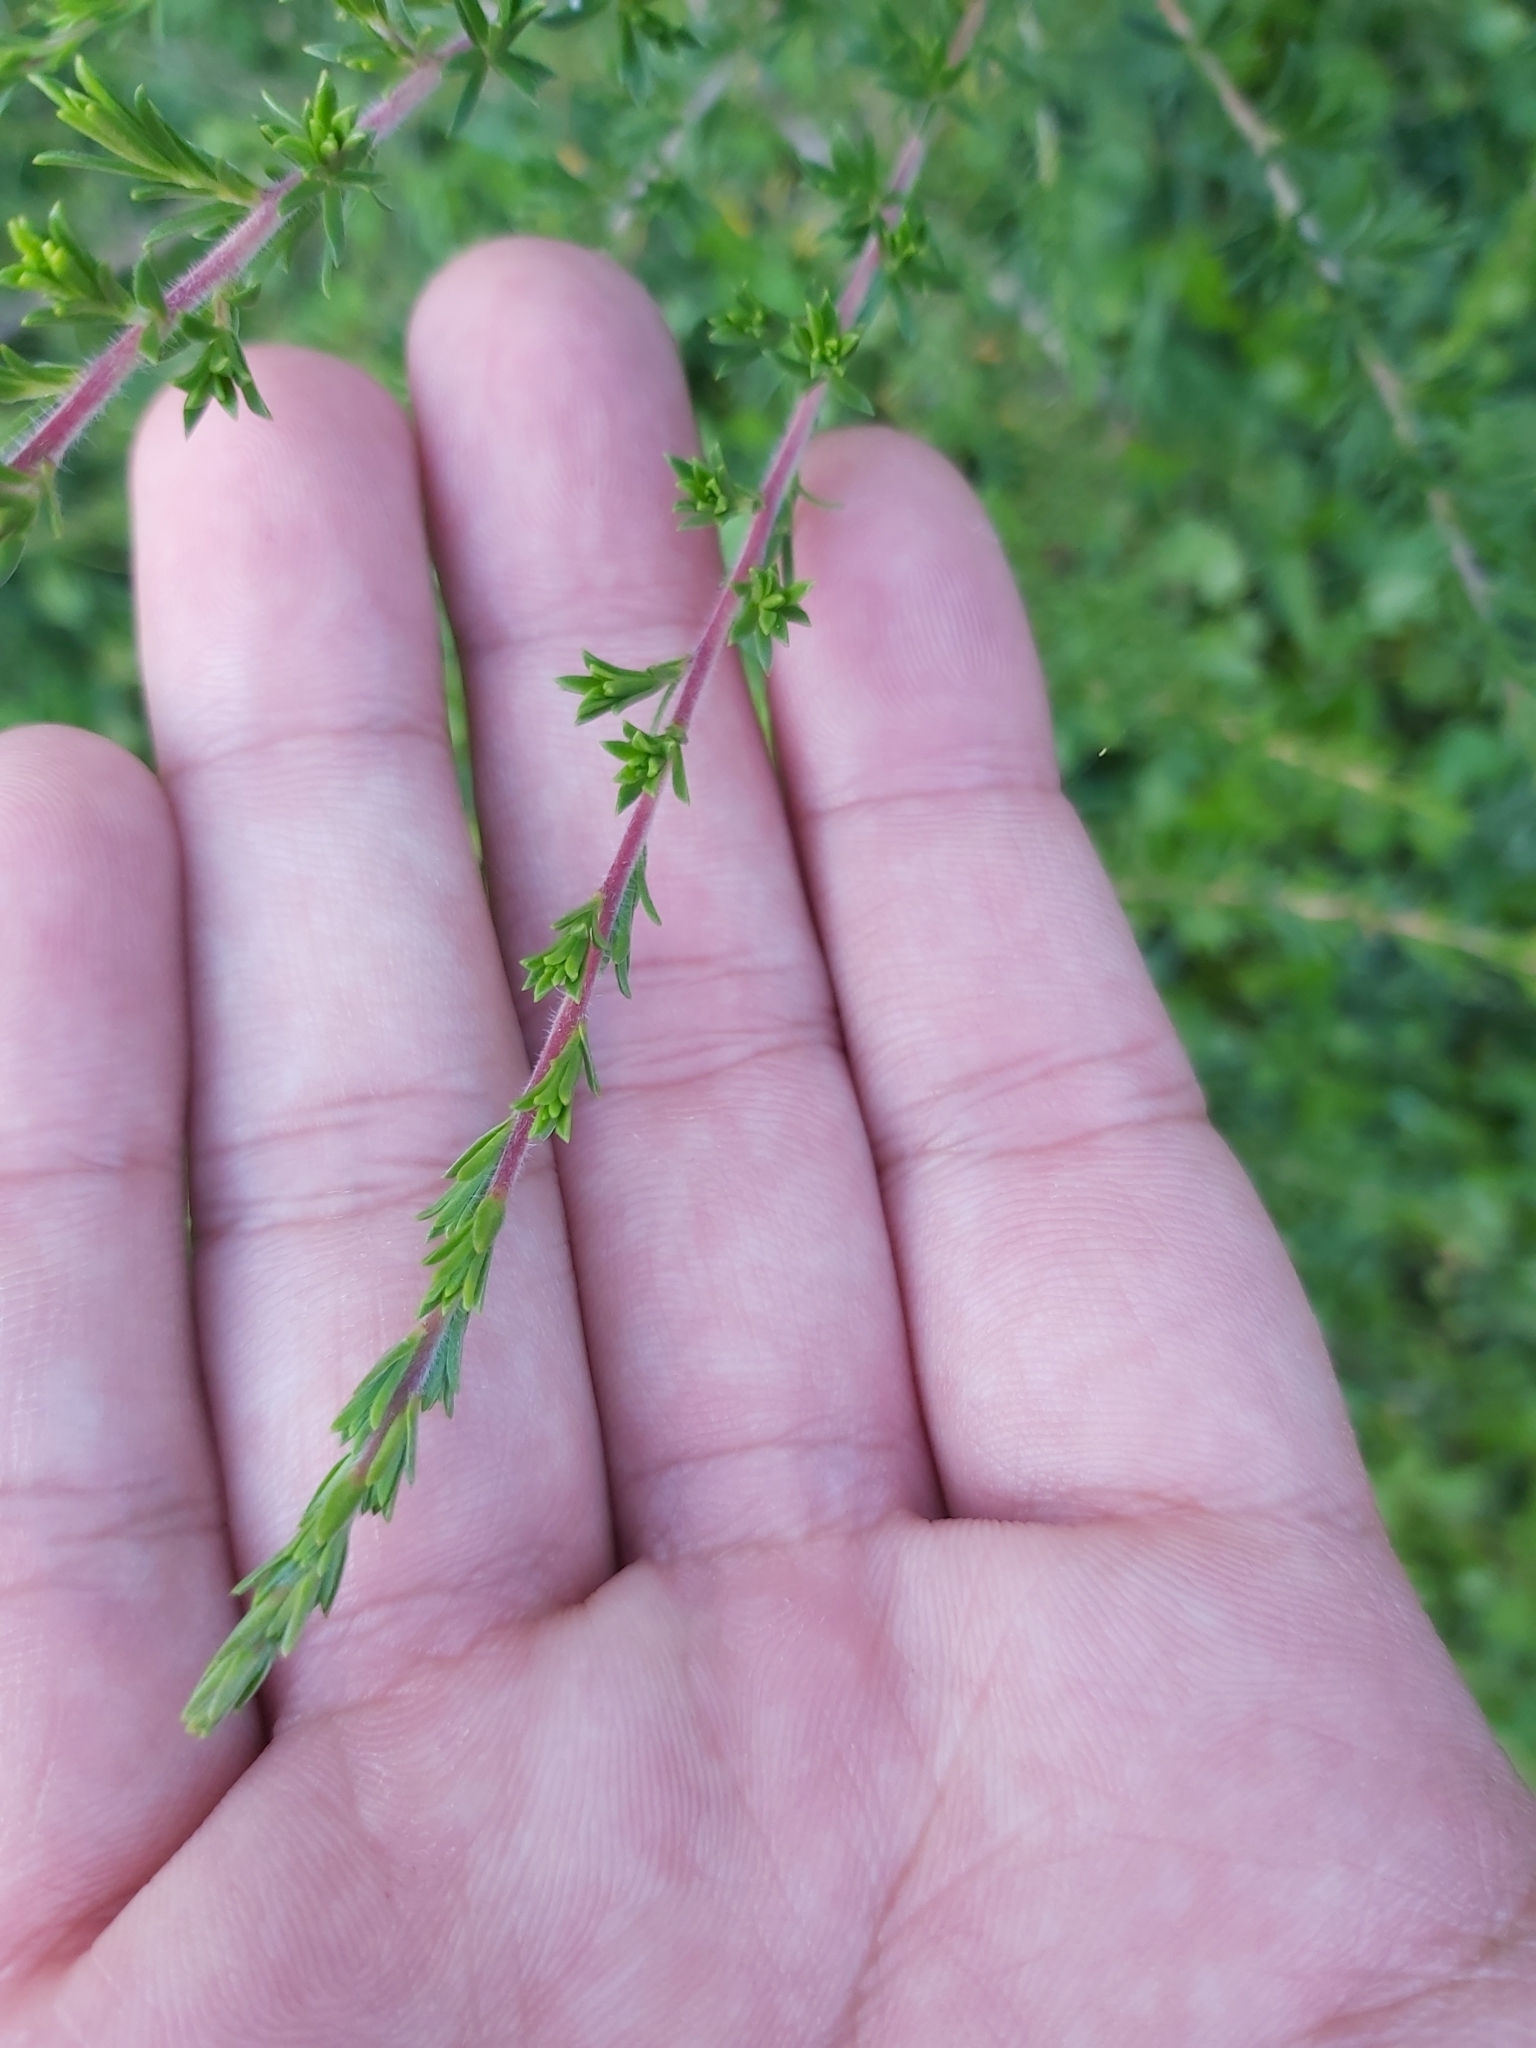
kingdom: Plantae
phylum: Tracheophyta
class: Magnoliopsida
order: Myrtales
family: Myrtaceae
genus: Kunzea
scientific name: Kunzea ambigua
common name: Tickbush
